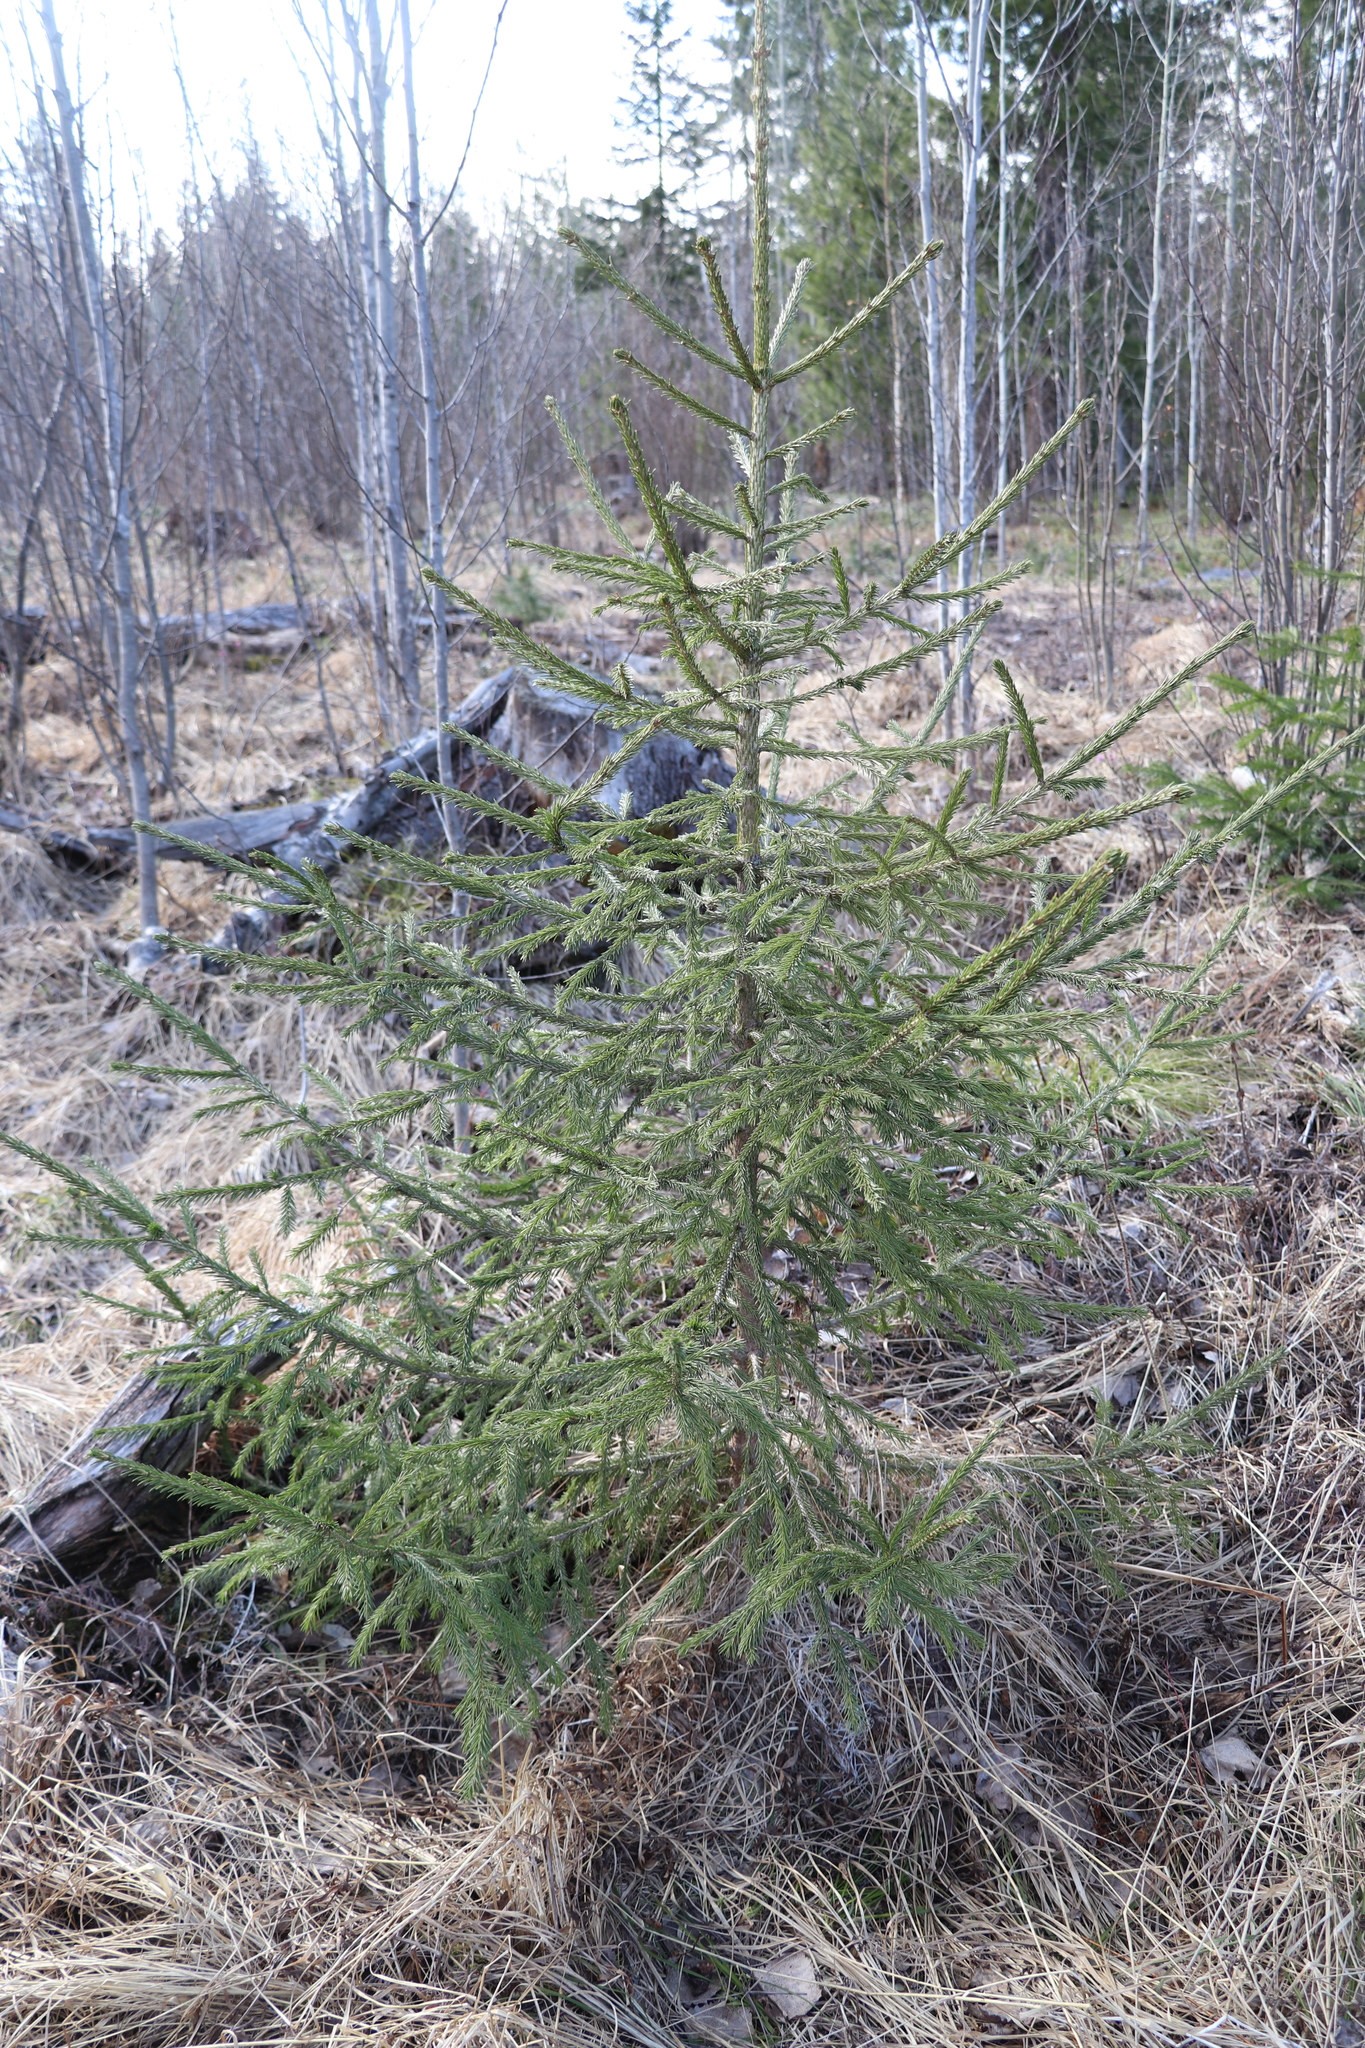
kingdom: Plantae
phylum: Tracheophyta
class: Pinopsida
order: Pinales
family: Pinaceae
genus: Picea
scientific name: Picea obovata
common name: Siberian spruce
